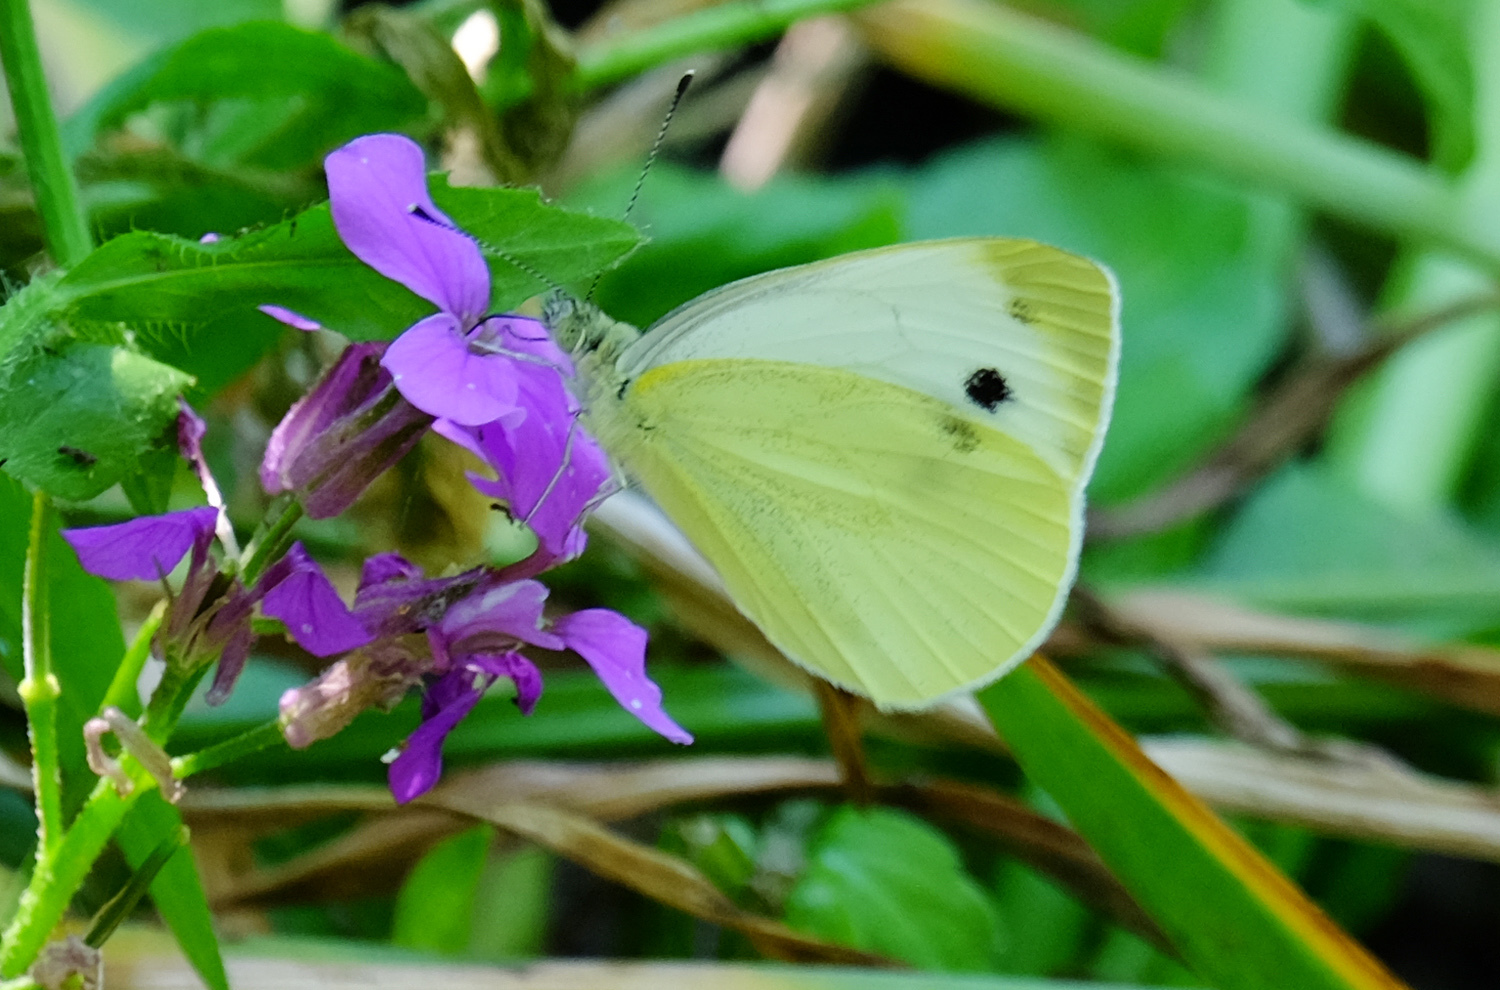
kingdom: Animalia
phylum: Arthropoda
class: Insecta
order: Lepidoptera
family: Pieridae
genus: Pieris
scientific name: Pieris napi
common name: Green-veined white
